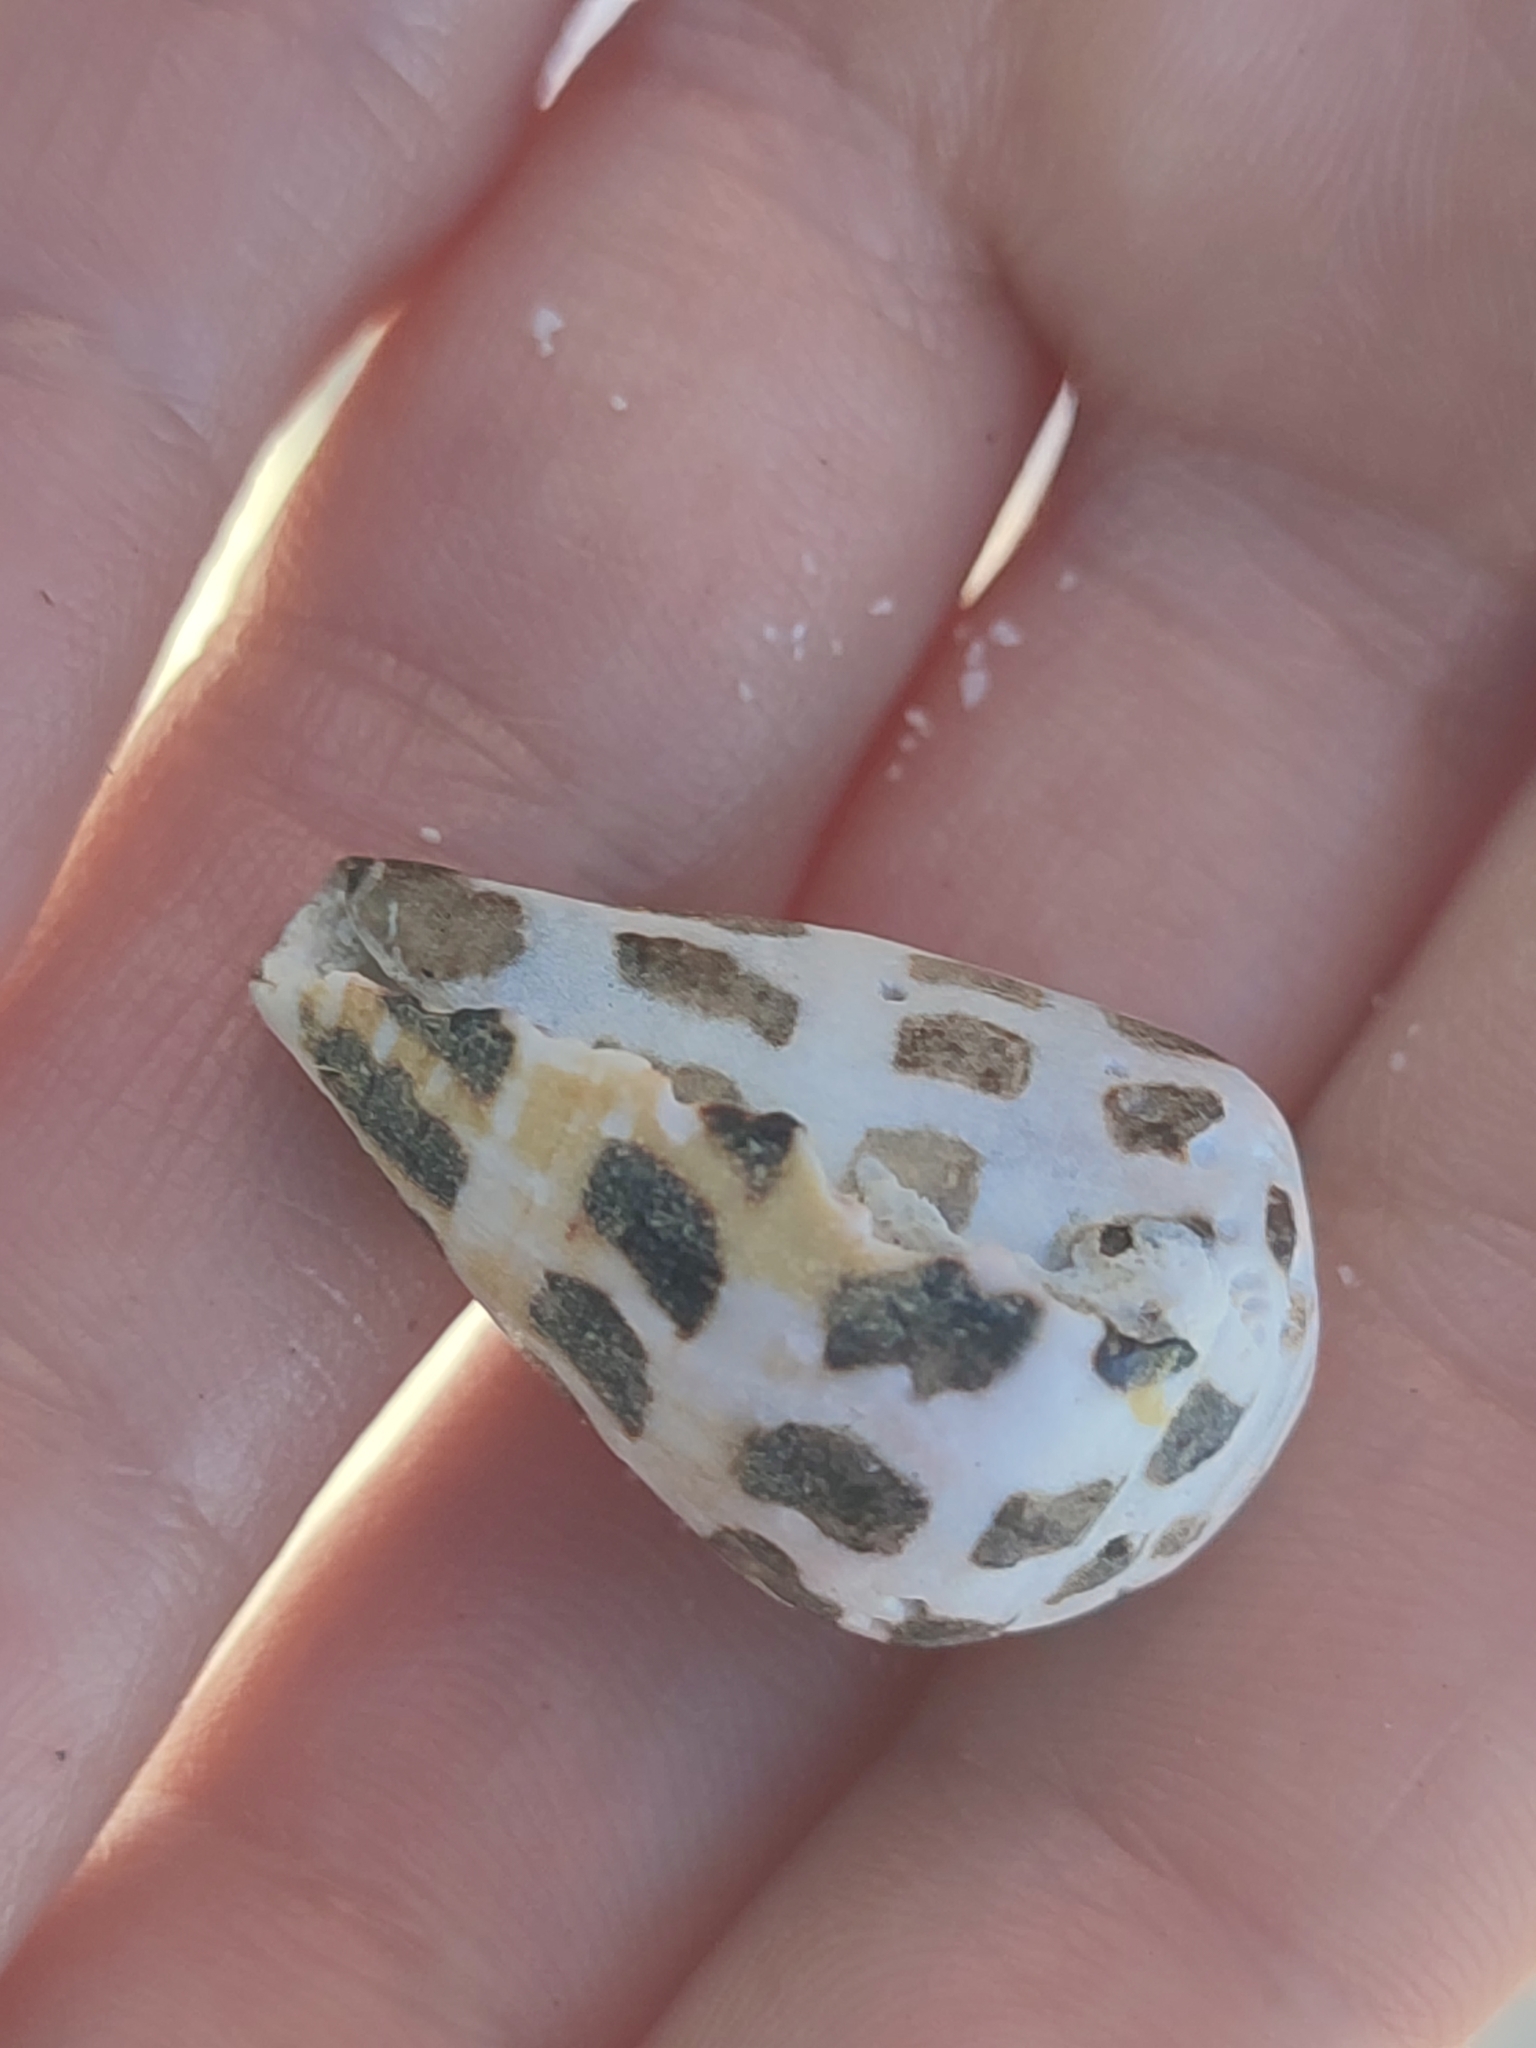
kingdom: Animalia
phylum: Mollusca
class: Gastropoda
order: Neogastropoda
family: Conidae
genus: Conus
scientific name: Conus ebraeus
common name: Hebrew cone
